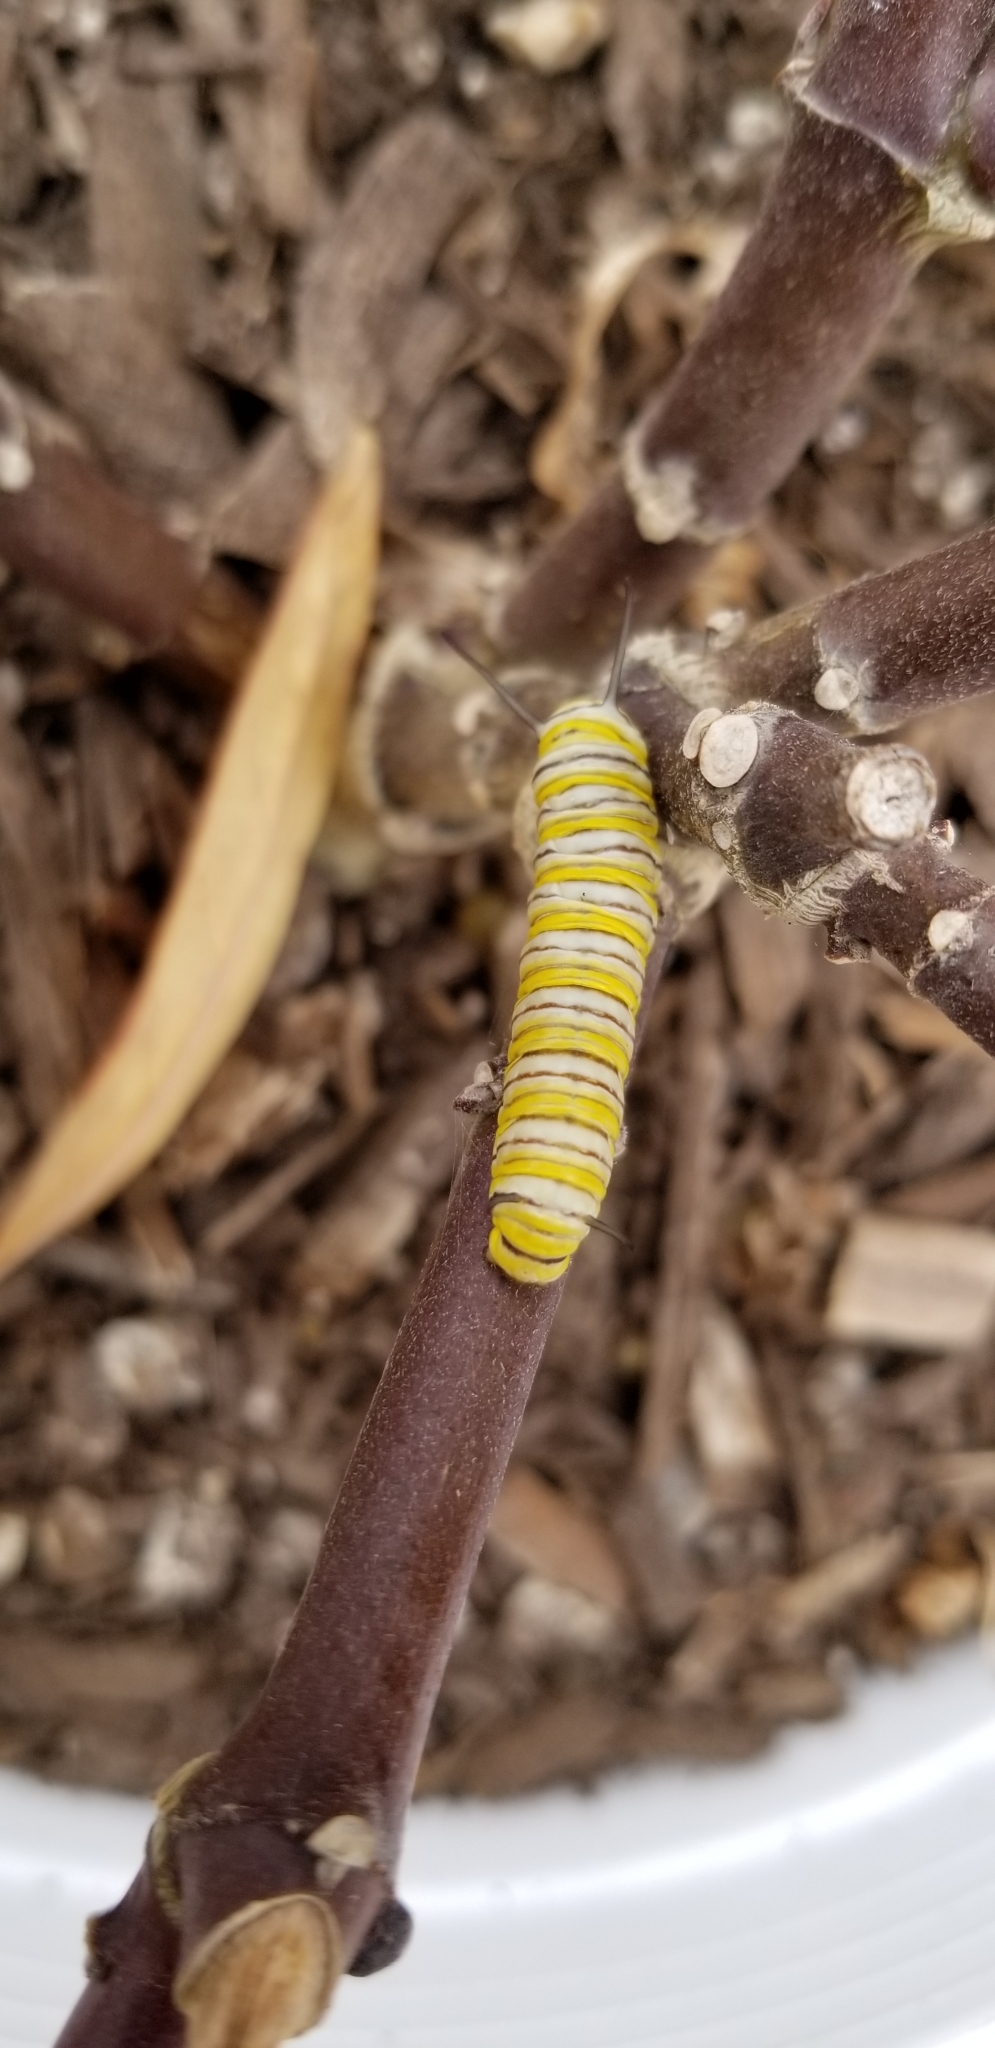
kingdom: Animalia
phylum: Arthropoda
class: Insecta
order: Lepidoptera
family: Nymphalidae
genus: Danaus
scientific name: Danaus plexippus
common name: Monarch
